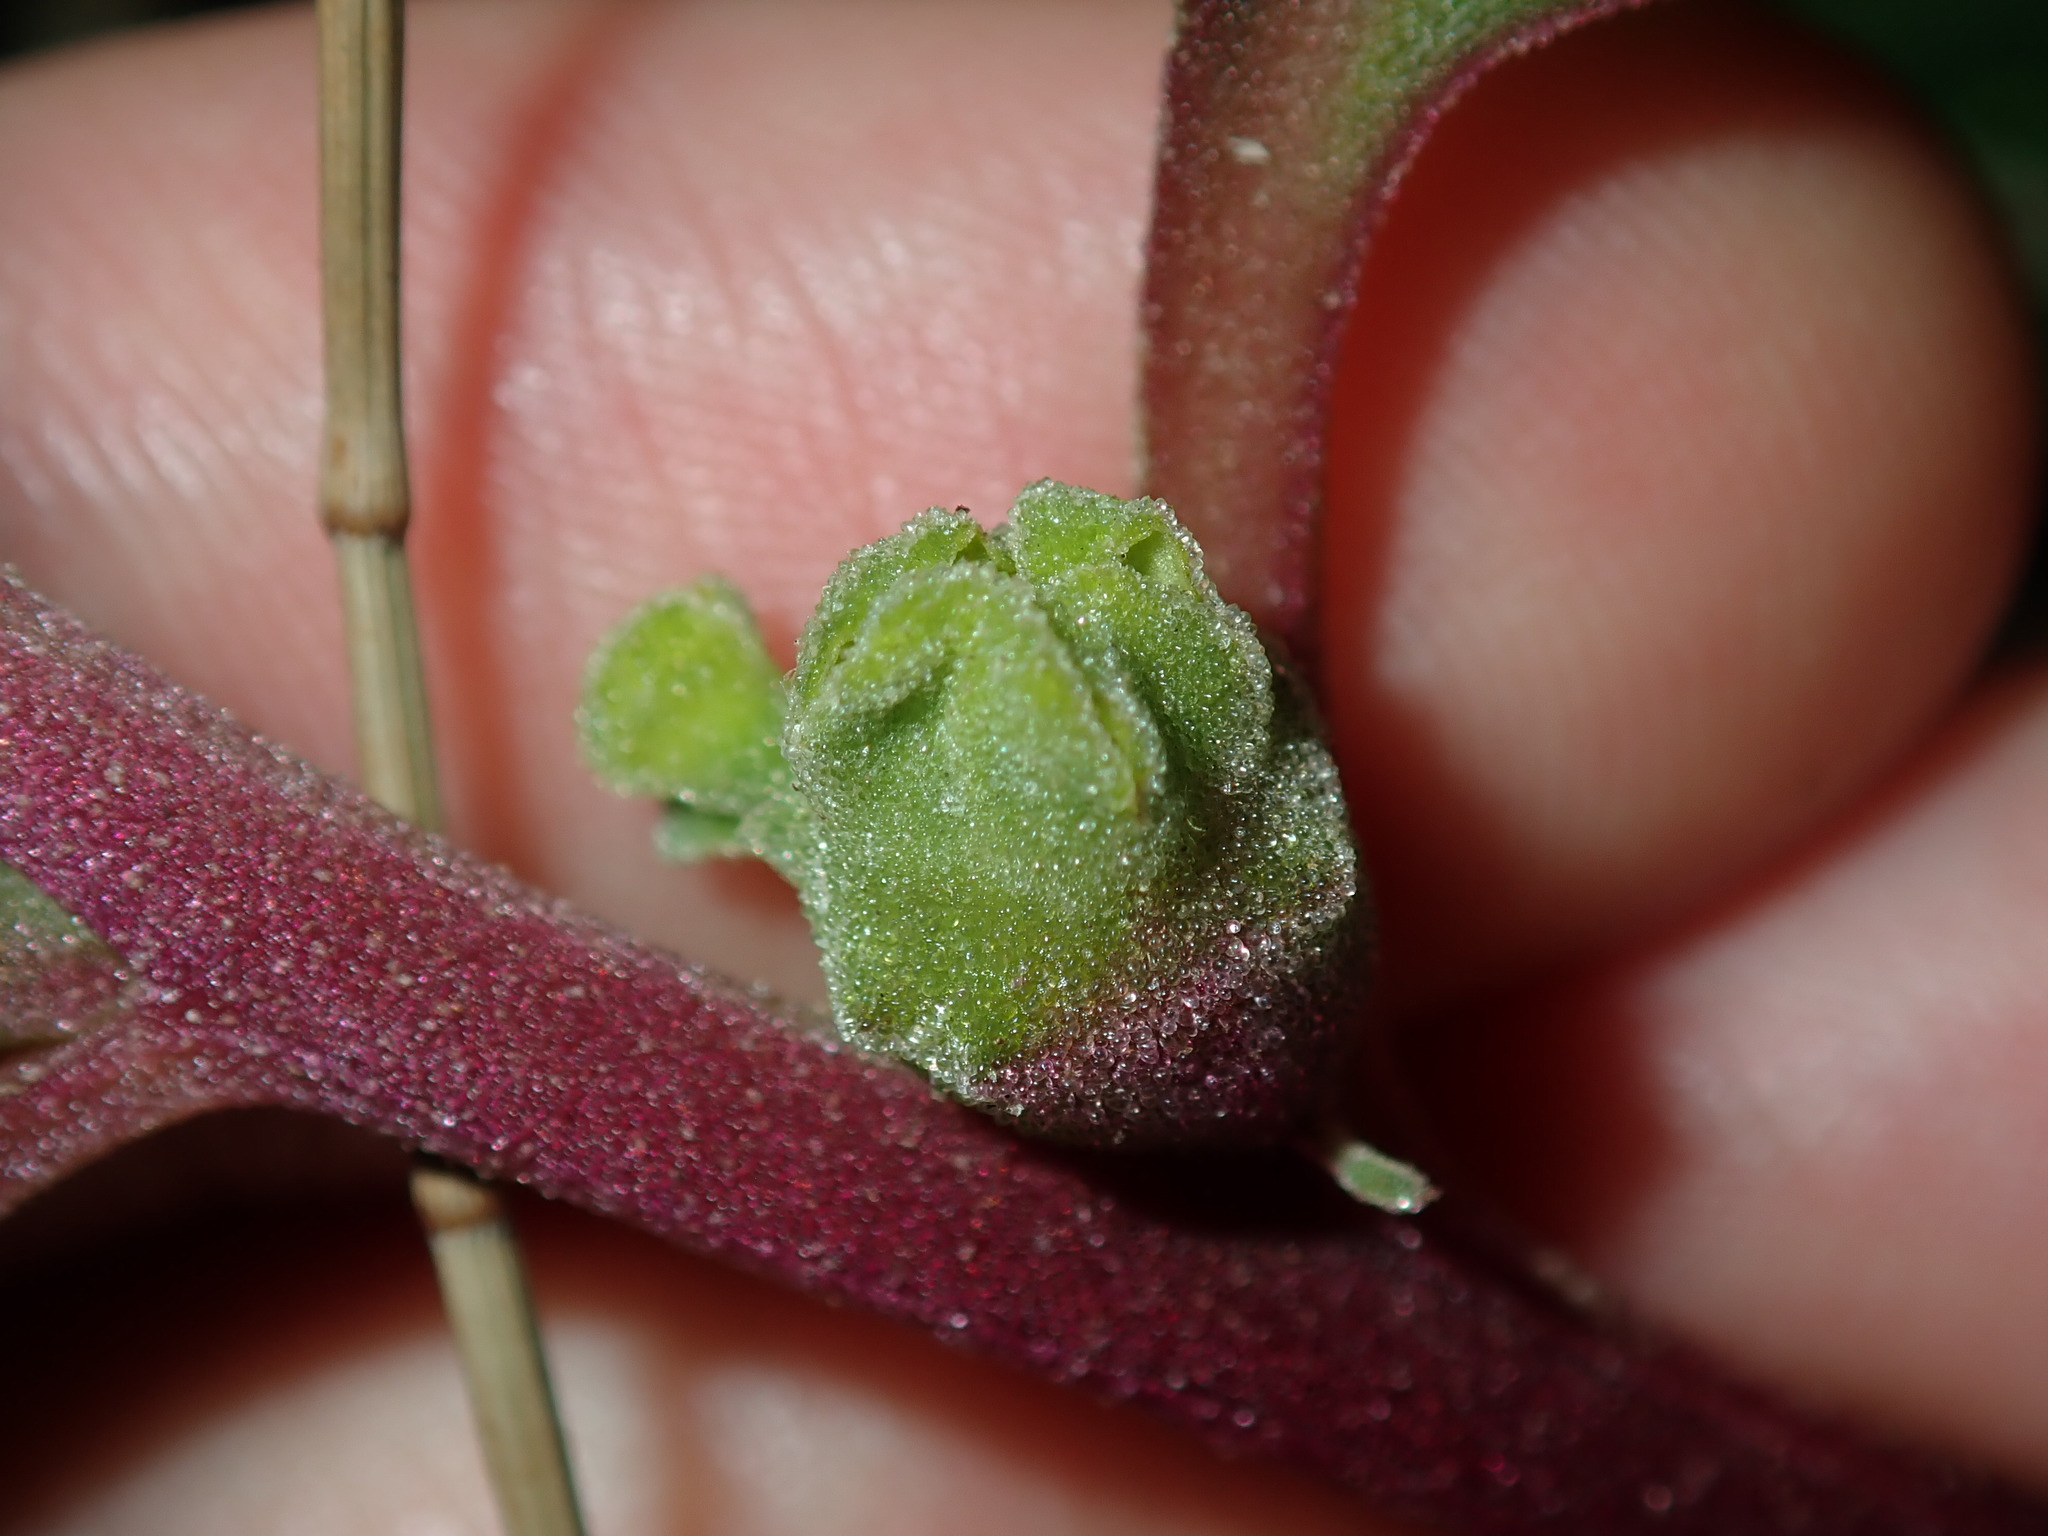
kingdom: Plantae
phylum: Tracheophyta
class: Magnoliopsida
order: Caryophyllales
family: Aizoaceae
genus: Tetragonia
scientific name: Tetragonia tetragonoides
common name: New zealand-spinach
